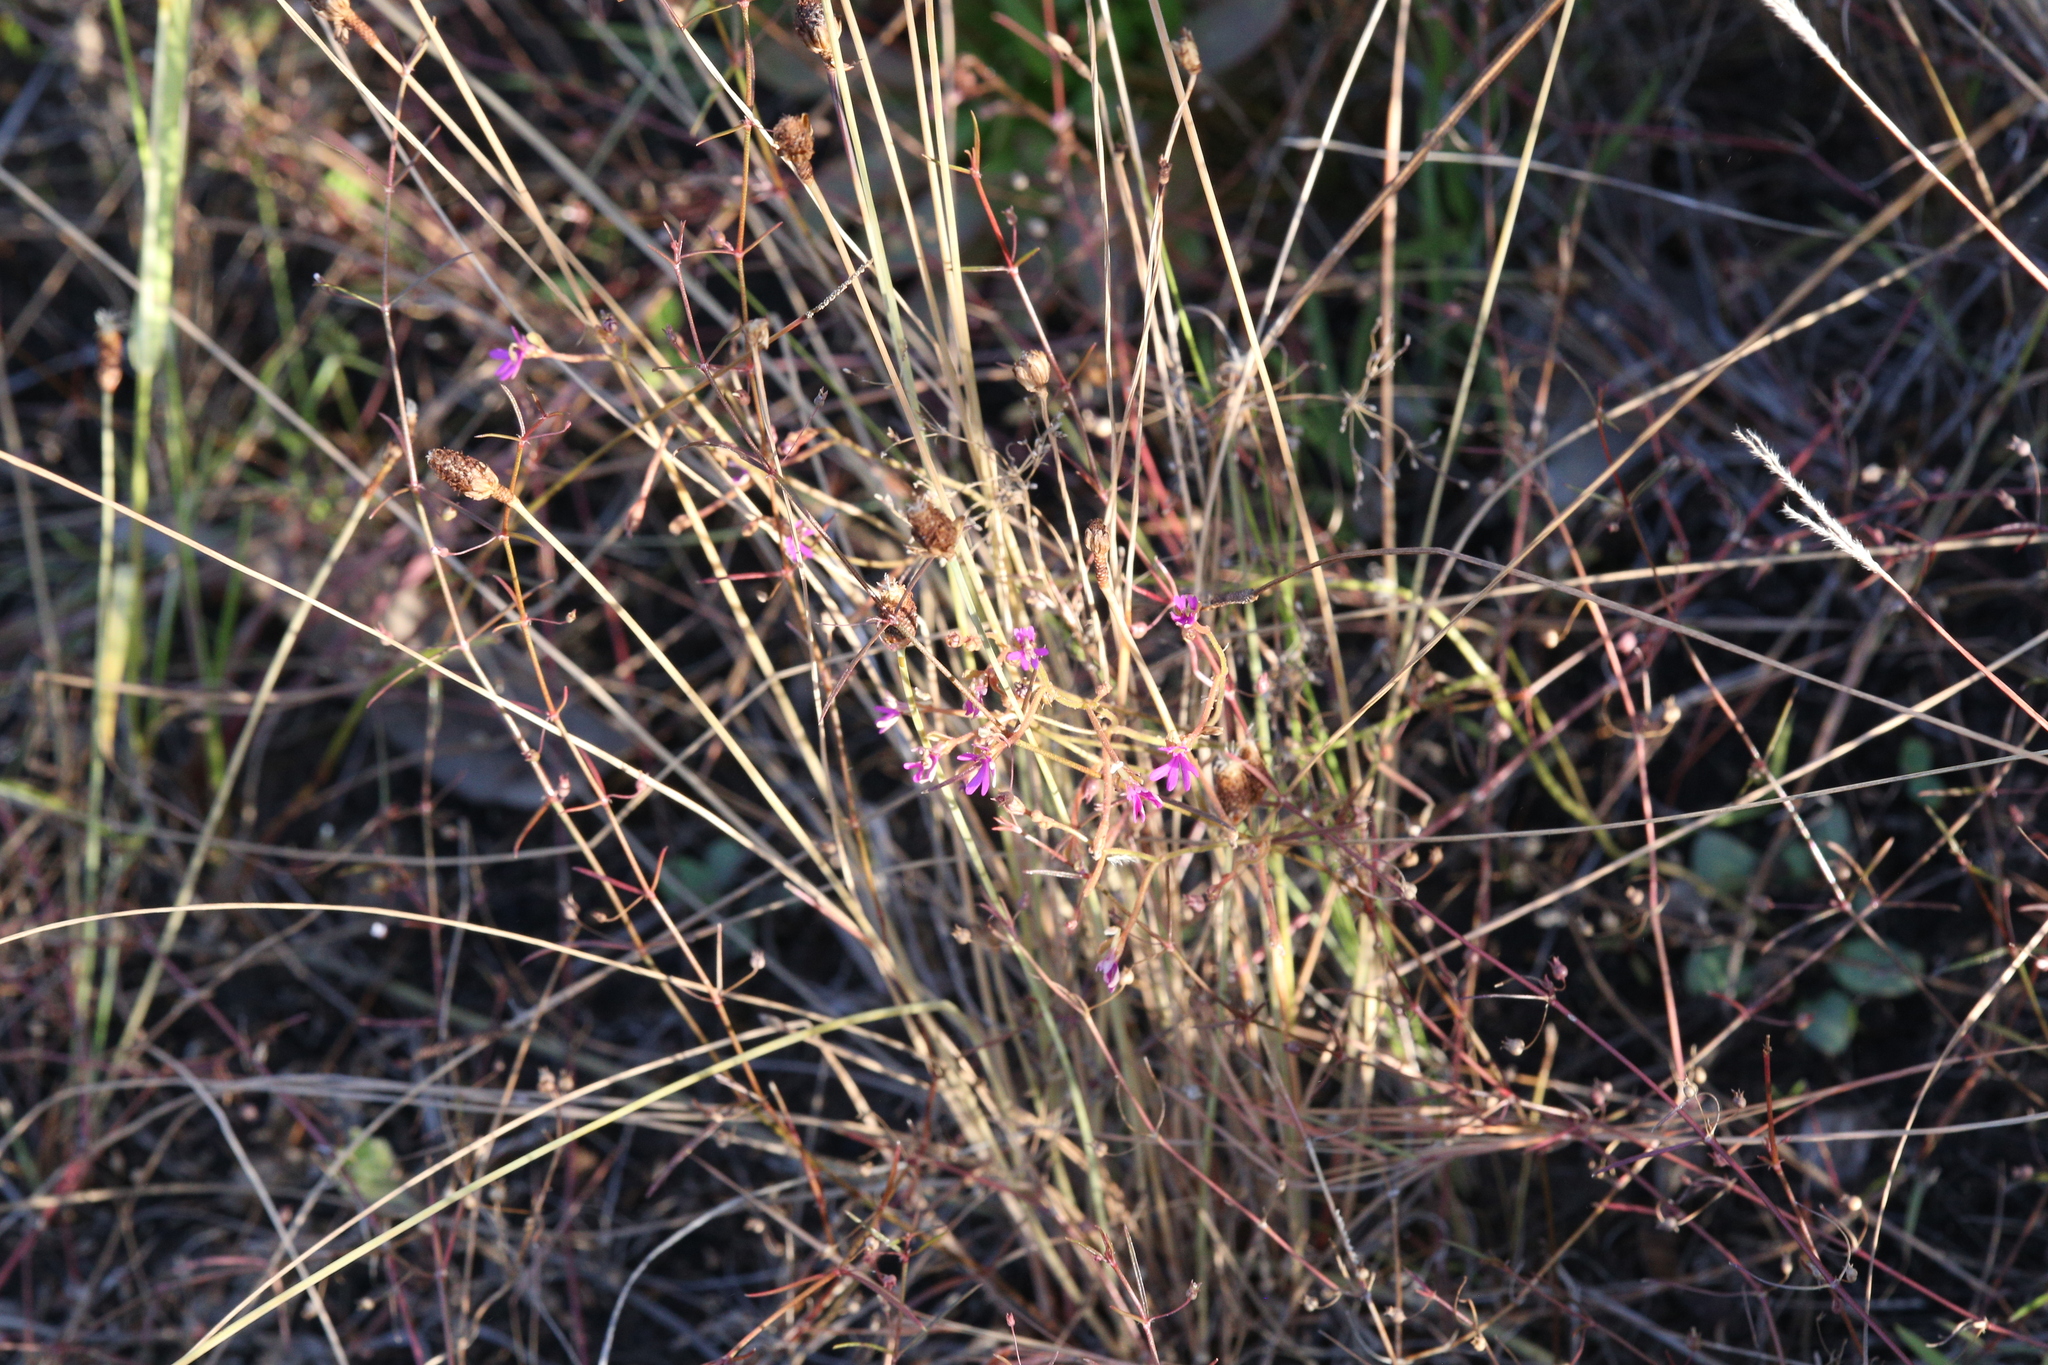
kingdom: Plantae
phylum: Tracheophyta
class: Magnoliopsida
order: Asterales
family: Stylidiaceae
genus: Stylidium
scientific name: Stylidium lobuliflorum
